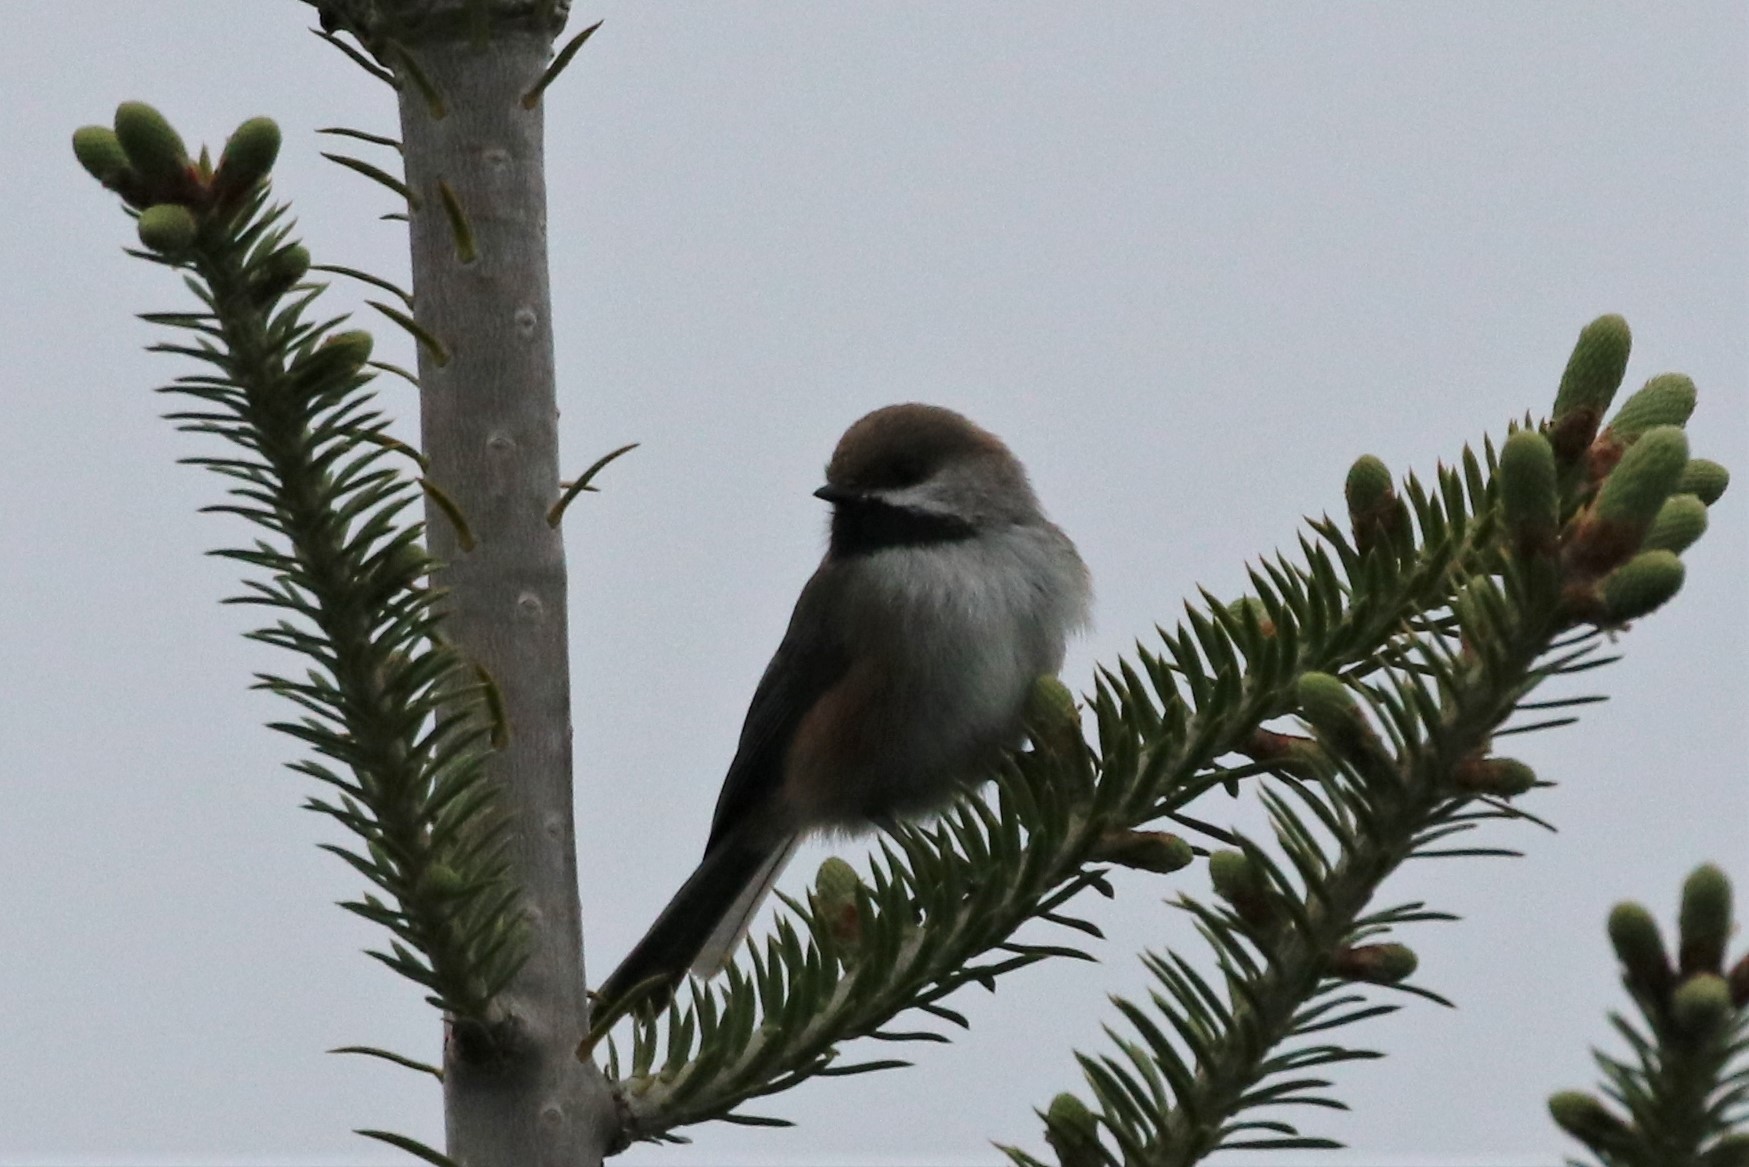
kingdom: Animalia
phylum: Chordata
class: Aves
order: Passeriformes
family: Paridae
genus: Poecile
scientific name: Poecile hudsonicus
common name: Boreal chickadee
